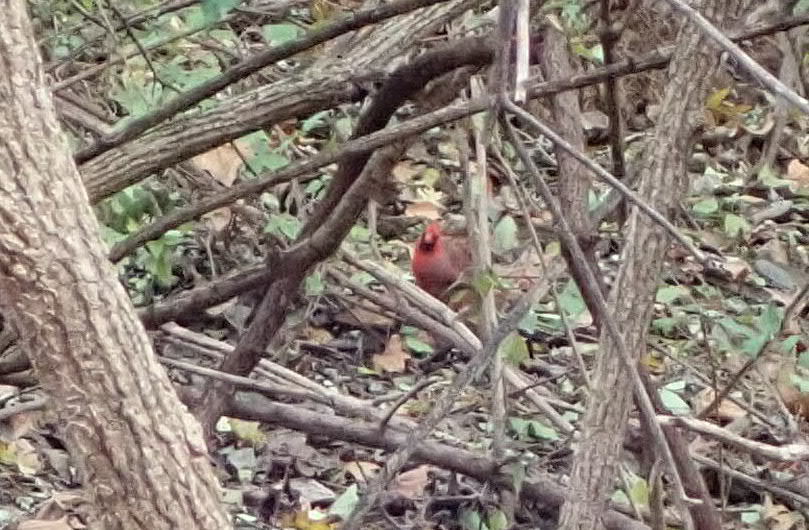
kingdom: Animalia
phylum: Chordata
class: Aves
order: Passeriformes
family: Cardinalidae
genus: Cardinalis
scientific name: Cardinalis cardinalis
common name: Northern cardinal
